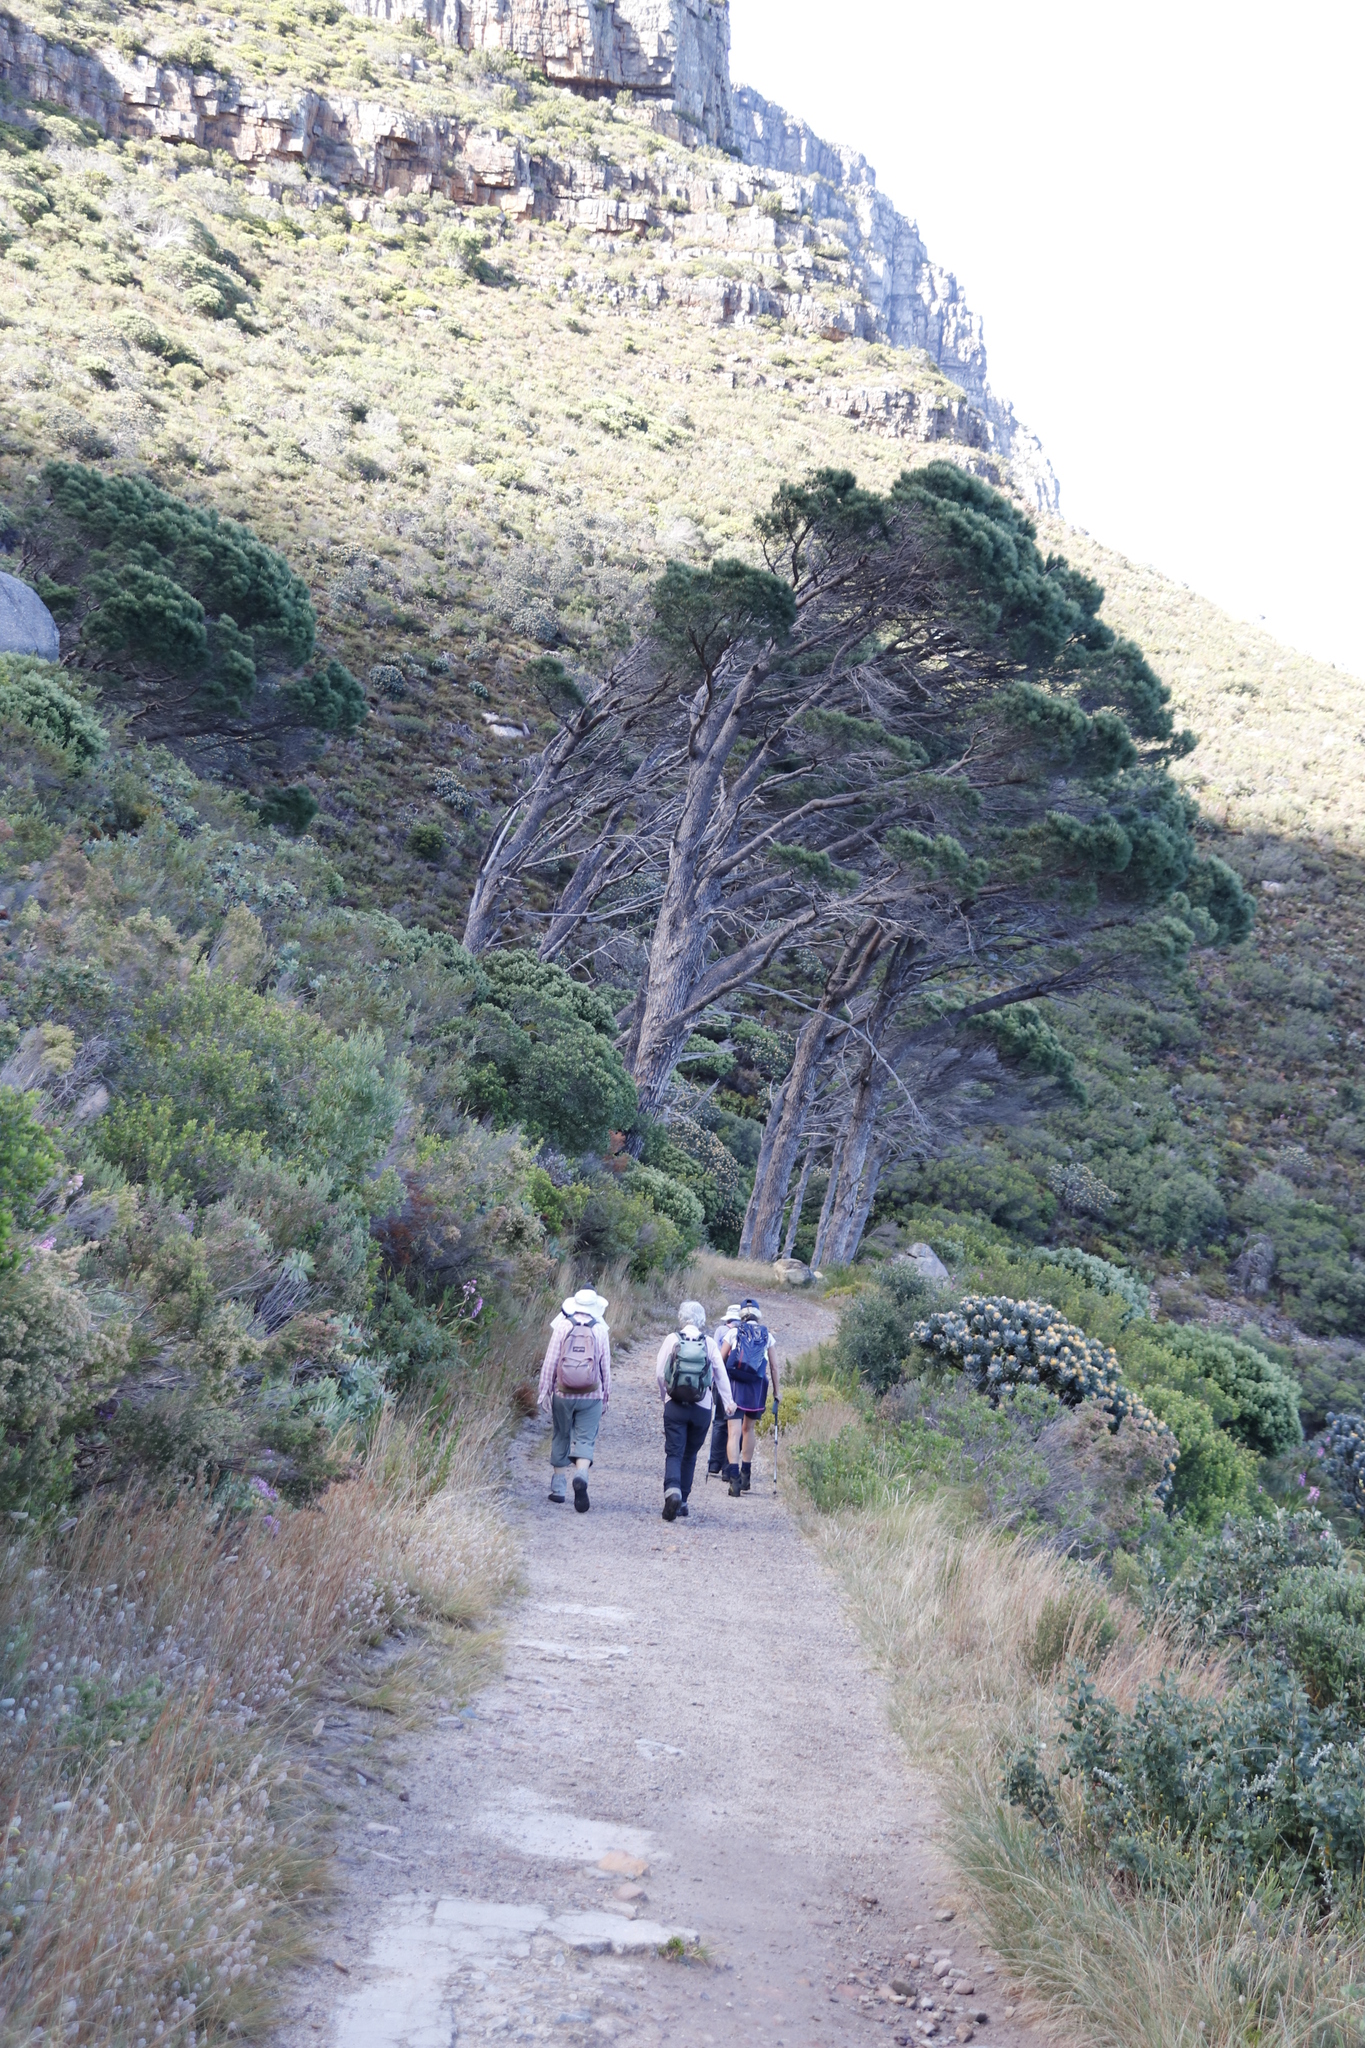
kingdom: Plantae
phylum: Tracheophyta
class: Pinopsida
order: Pinales
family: Pinaceae
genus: Pinus
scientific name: Pinus pinea
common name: Italian stone pine
